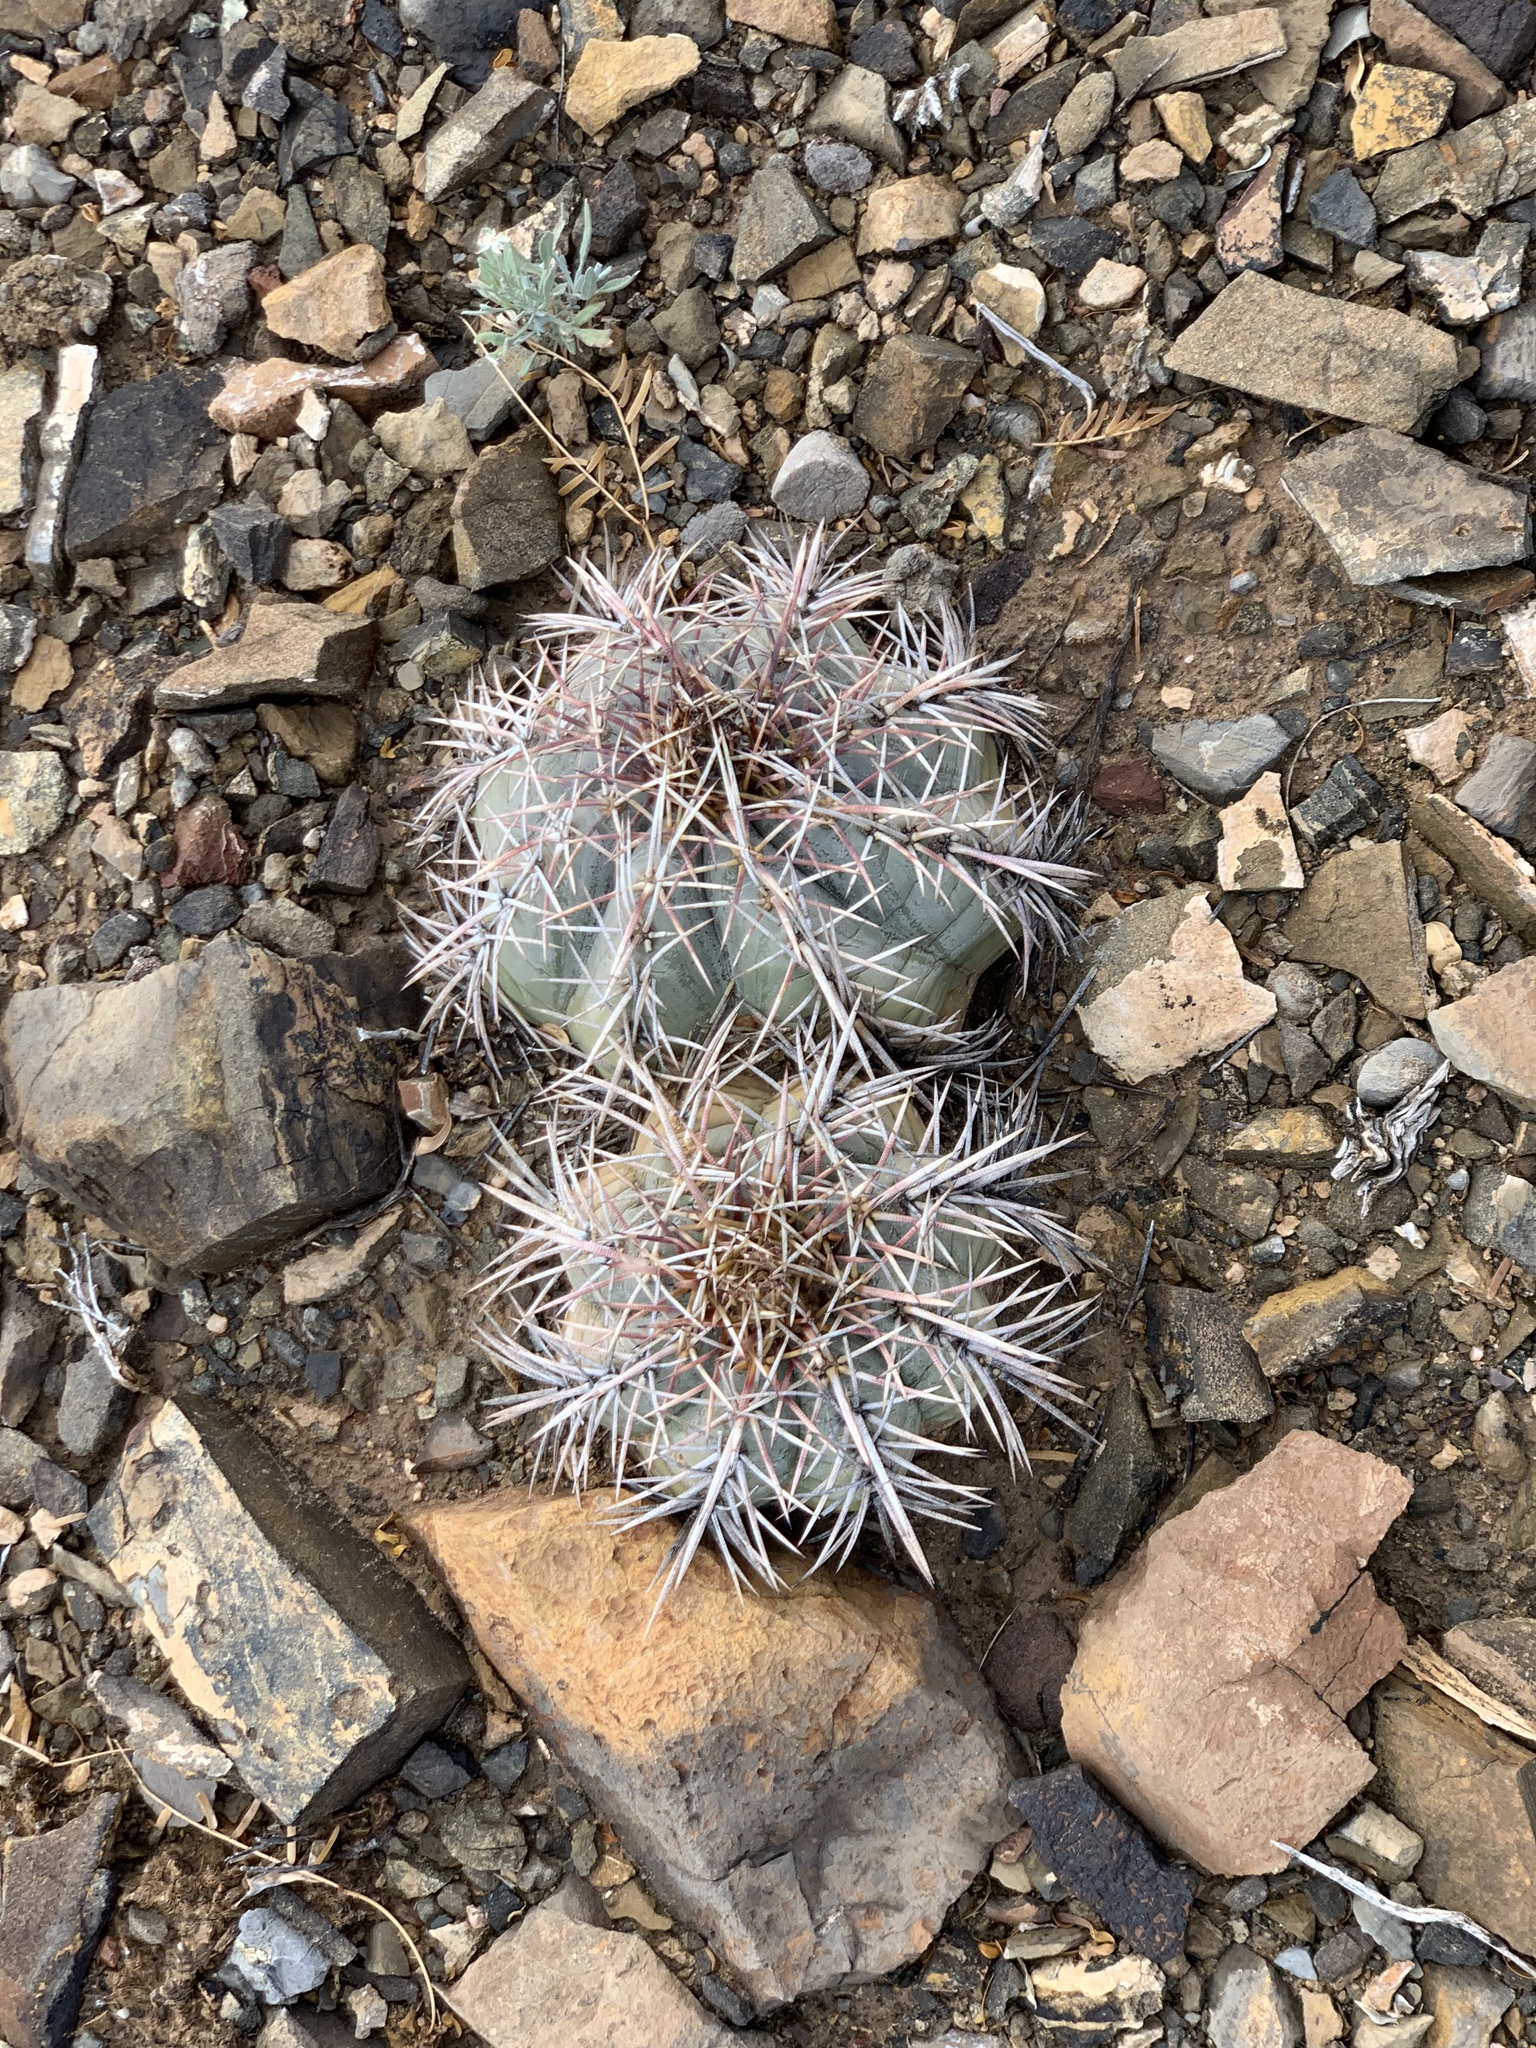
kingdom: Plantae
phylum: Tracheophyta
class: Magnoliopsida
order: Caryophyllales
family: Cactaceae
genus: Echinocactus
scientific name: Echinocactus horizonthalonius
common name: Devilshead
